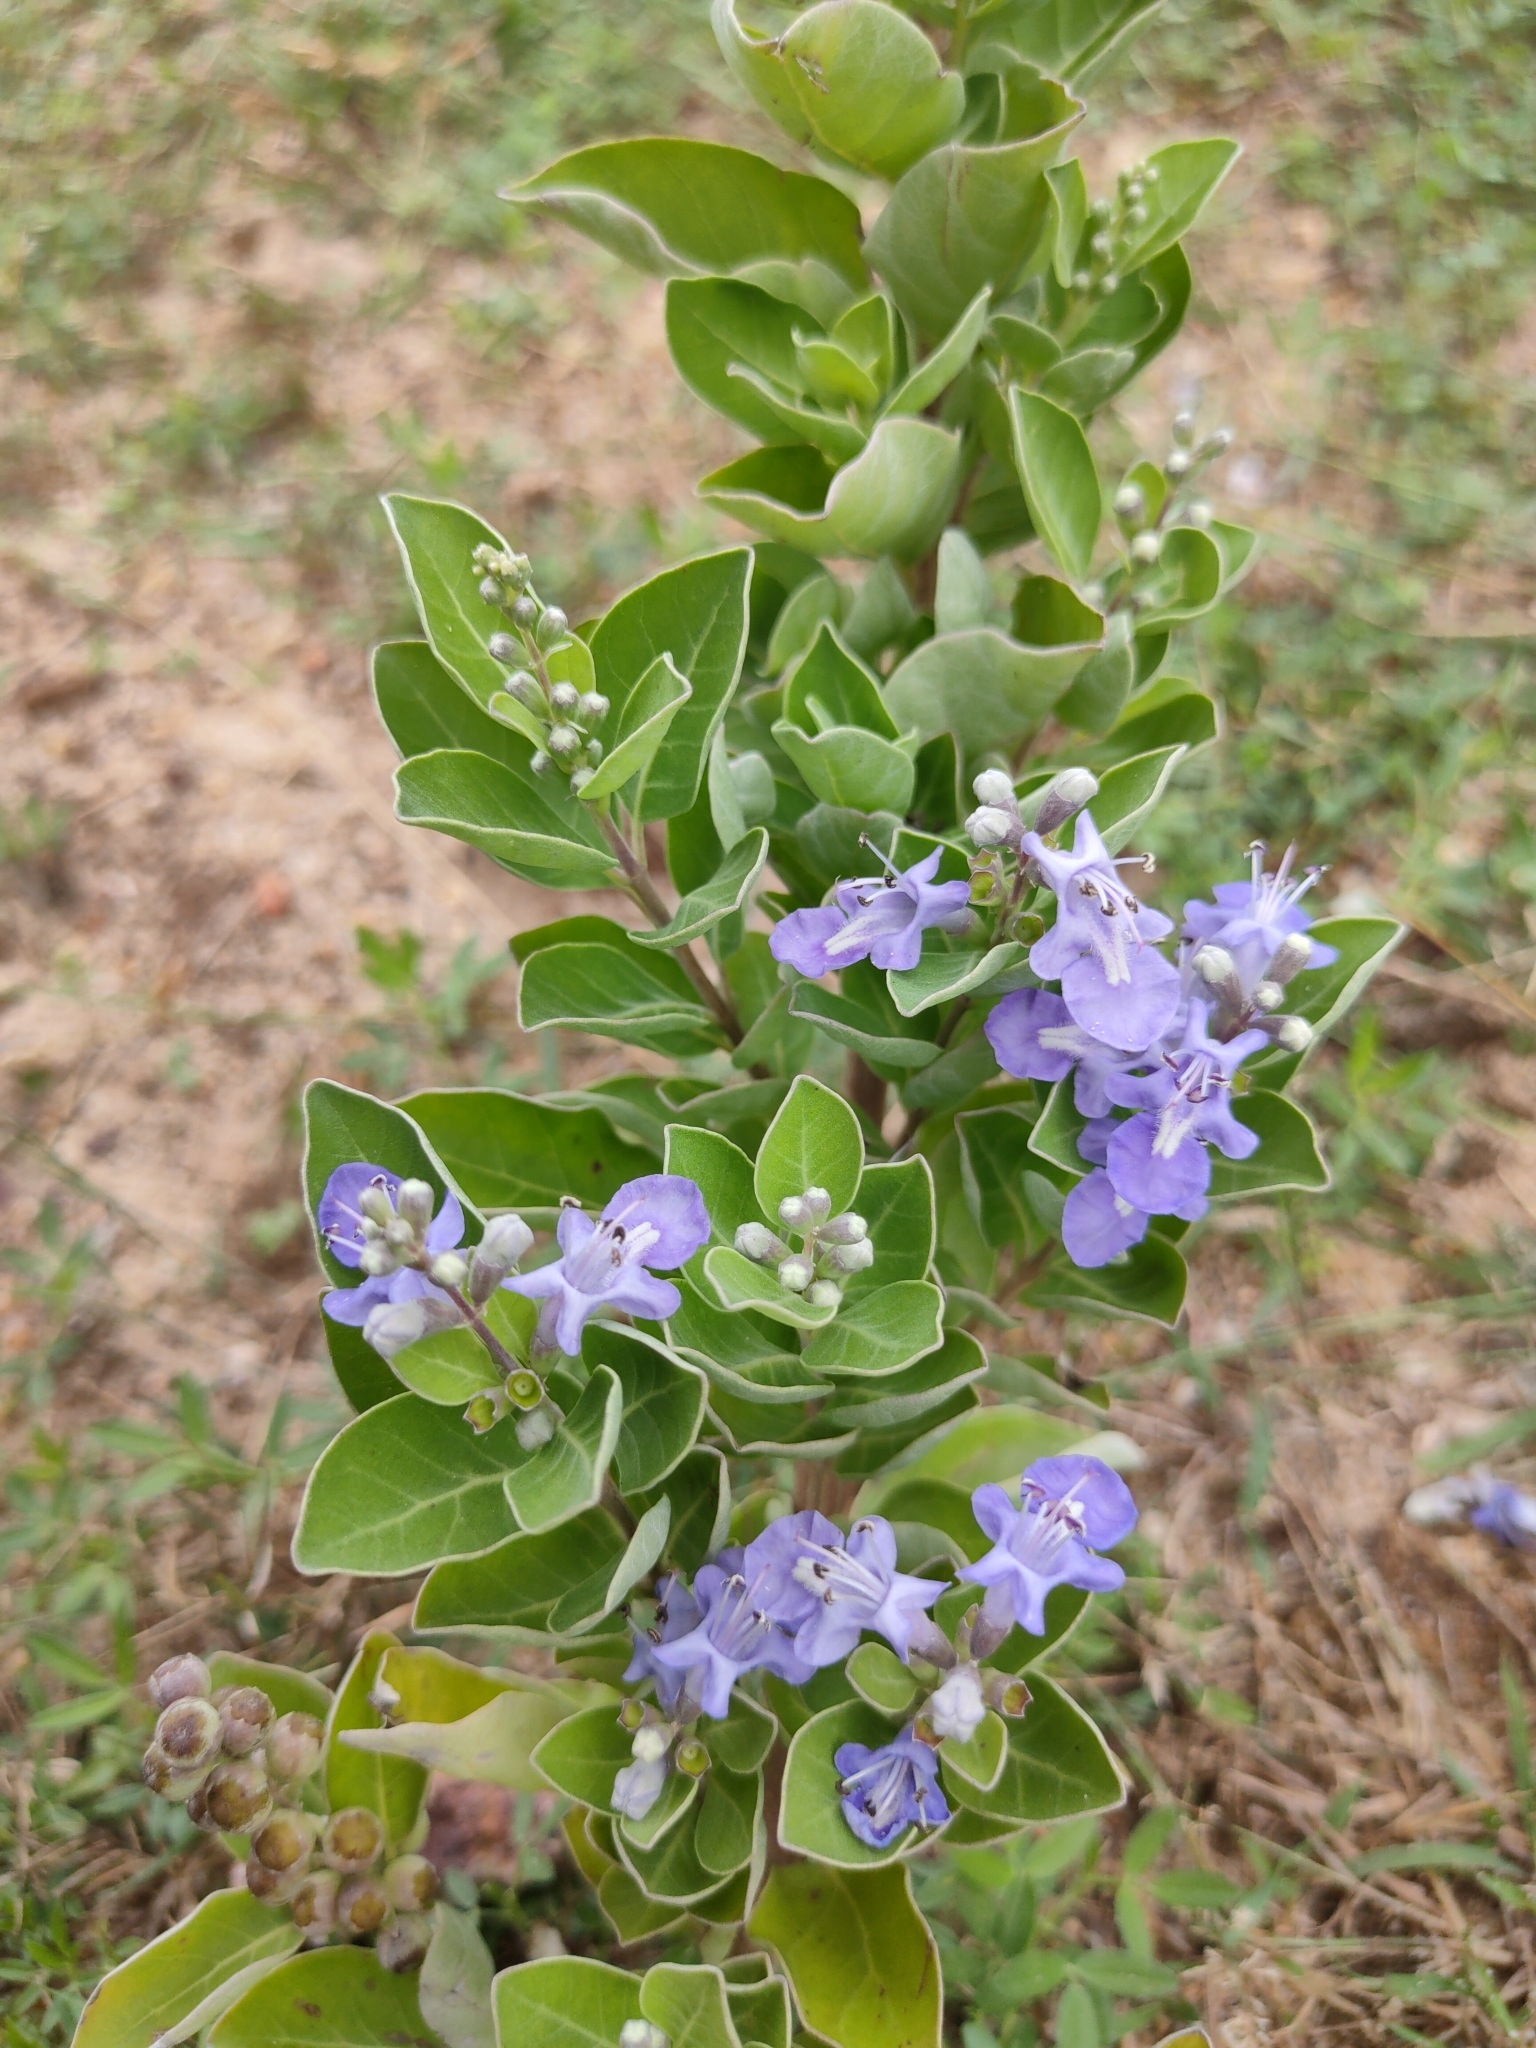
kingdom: Plantae
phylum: Tracheophyta
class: Magnoliopsida
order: Lamiales
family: Lamiaceae
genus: Vitex
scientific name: Vitex rotundifolia
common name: Beach vitex
